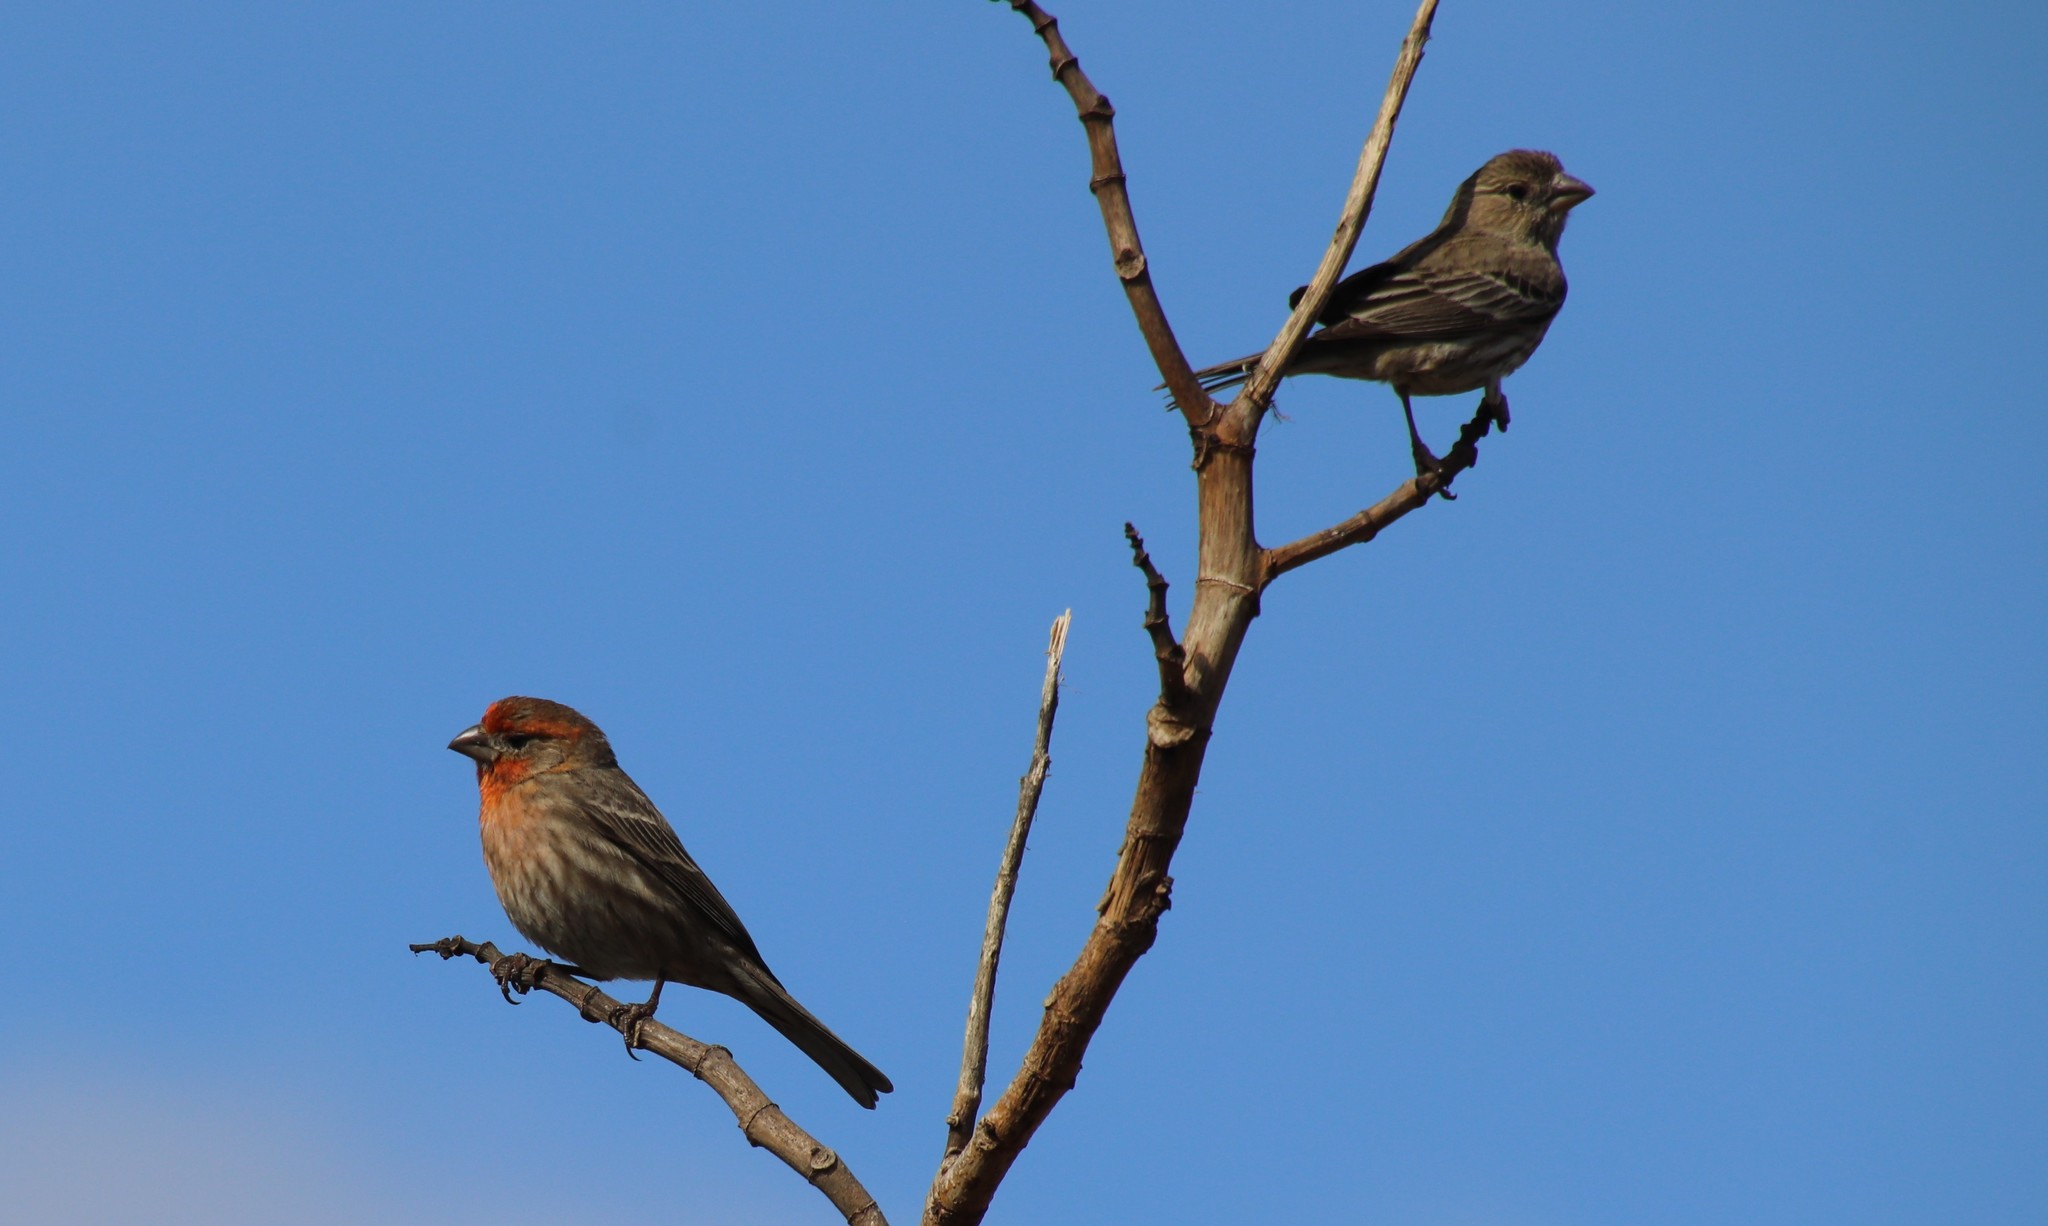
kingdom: Animalia
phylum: Chordata
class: Aves
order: Passeriformes
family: Fringillidae
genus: Haemorhous
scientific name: Haemorhous mexicanus
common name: House finch
